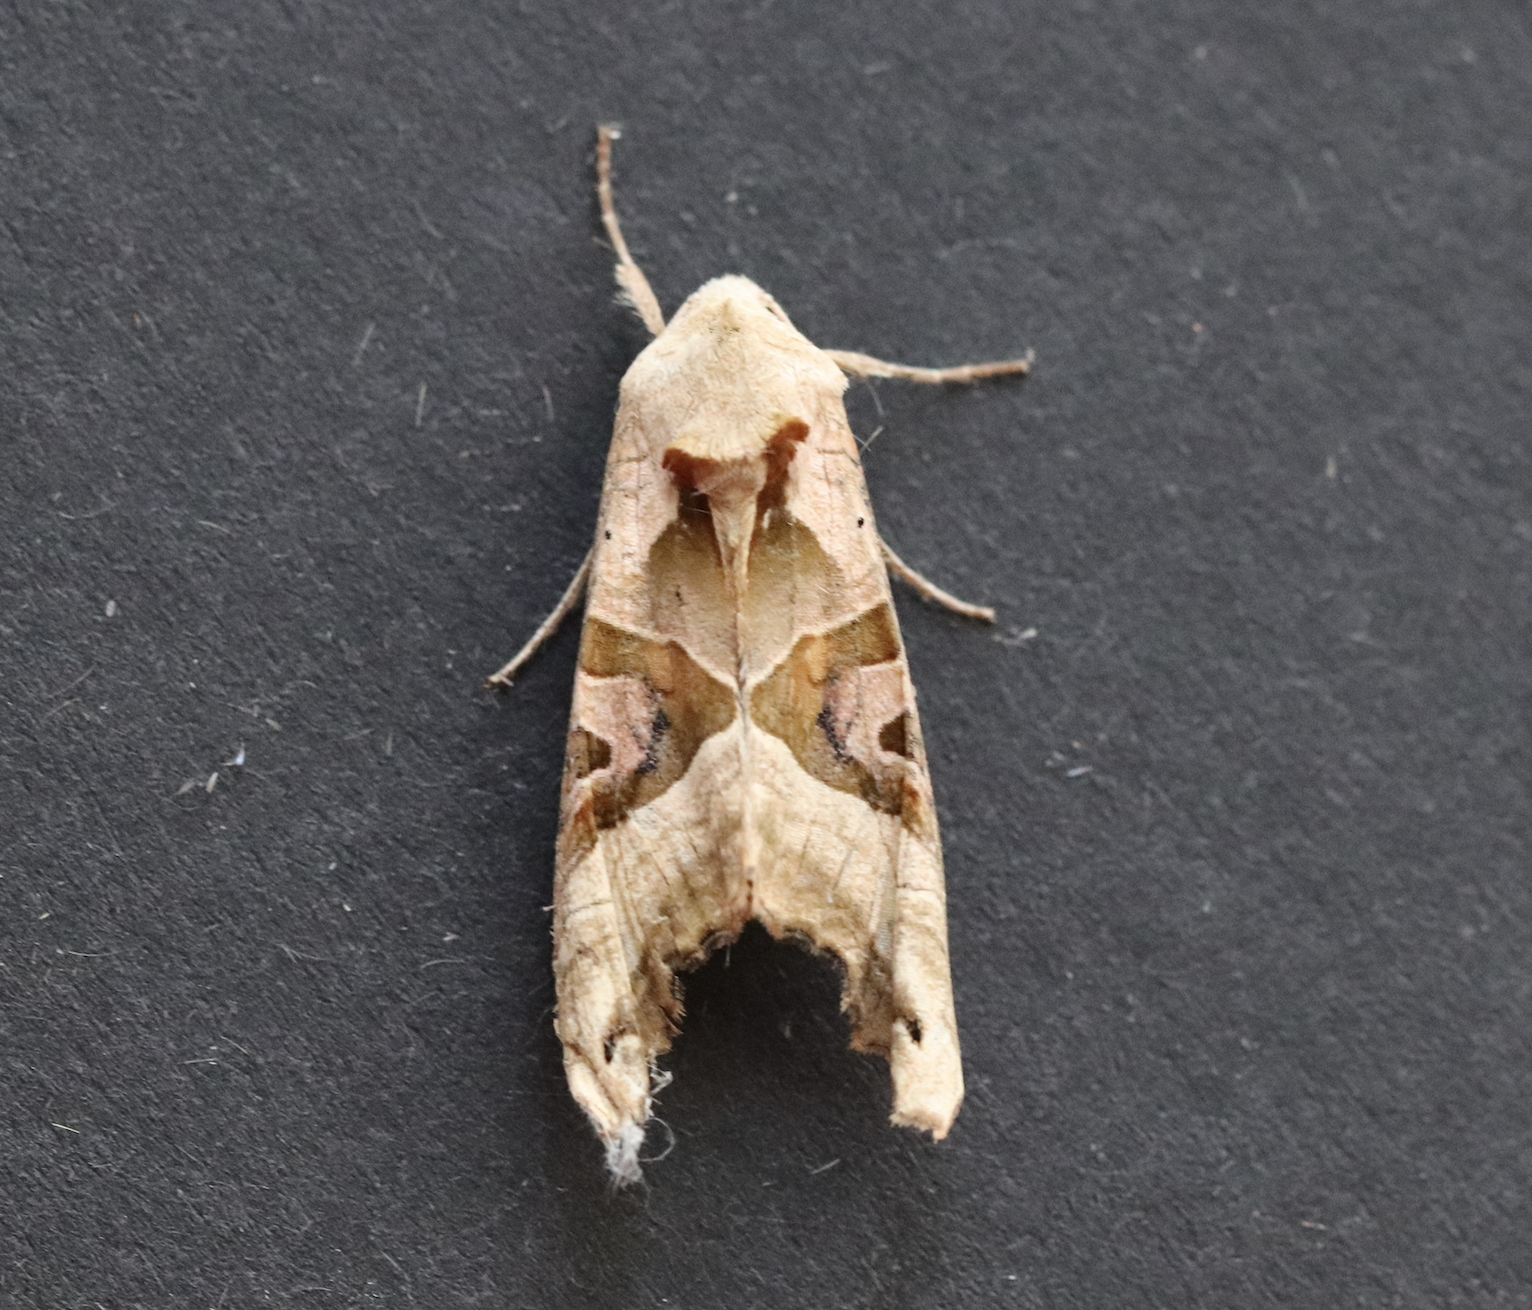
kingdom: Animalia
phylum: Arthropoda
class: Insecta
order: Lepidoptera
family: Noctuidae
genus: Phlogophora
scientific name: Phlogophora meticulosa
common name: Angle shades
